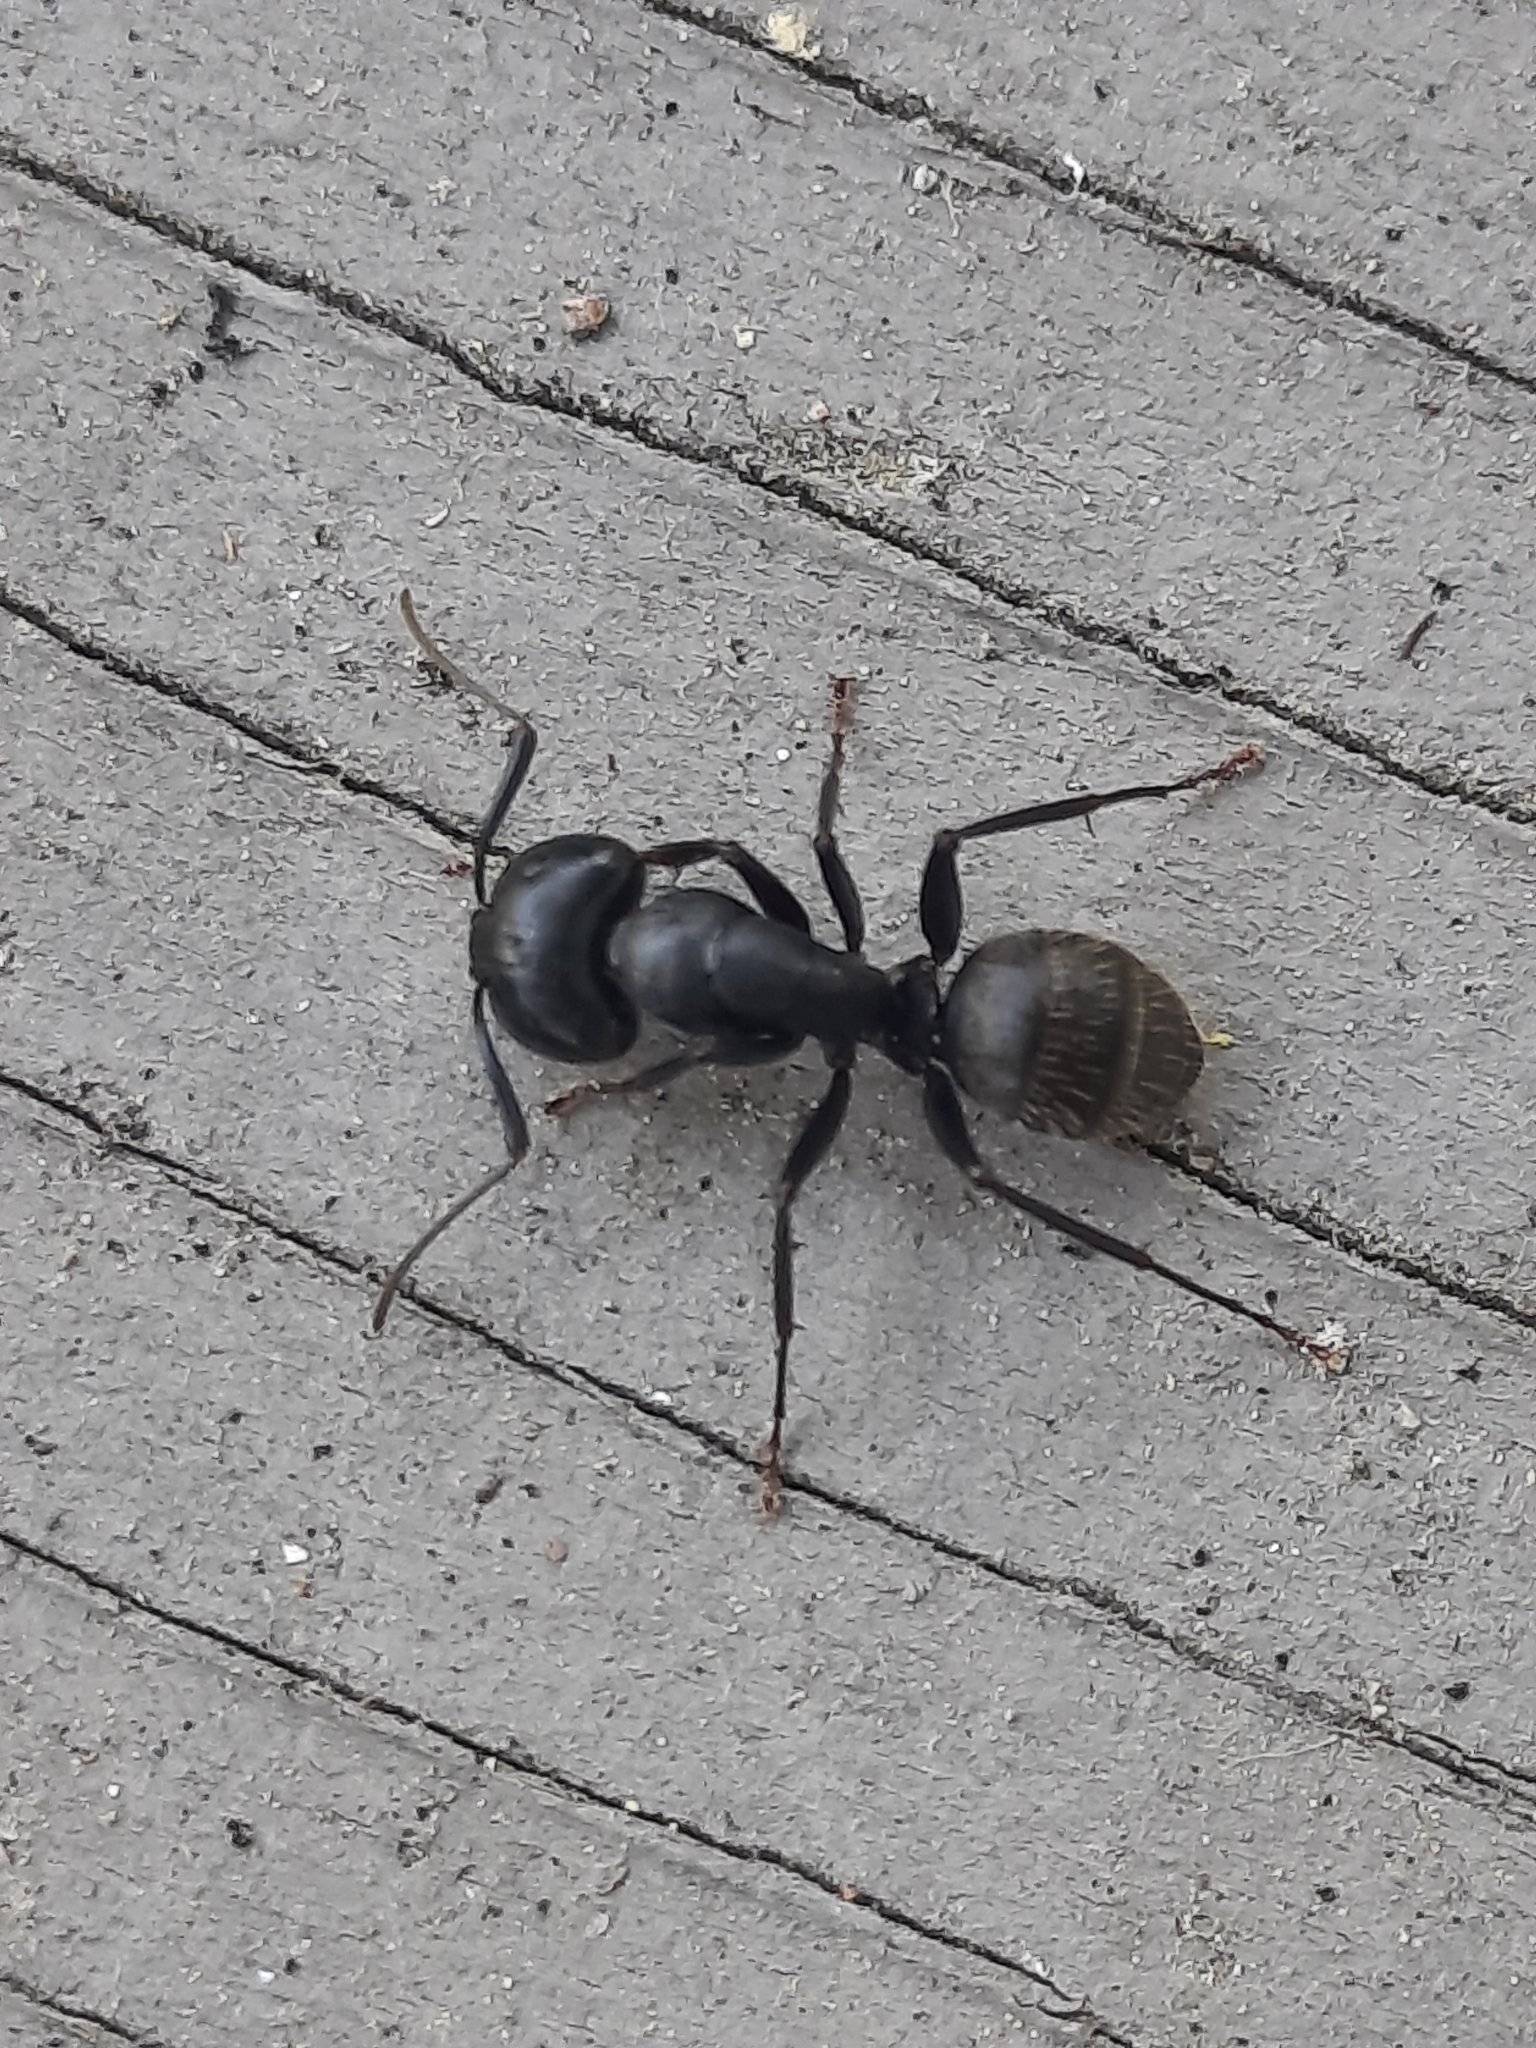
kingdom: Animalia
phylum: Arthropoda
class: Insecta
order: Hymenoptera
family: Formicidae
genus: Camponotus
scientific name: Camponotus pennsylvanicus
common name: Black carpenter ant
